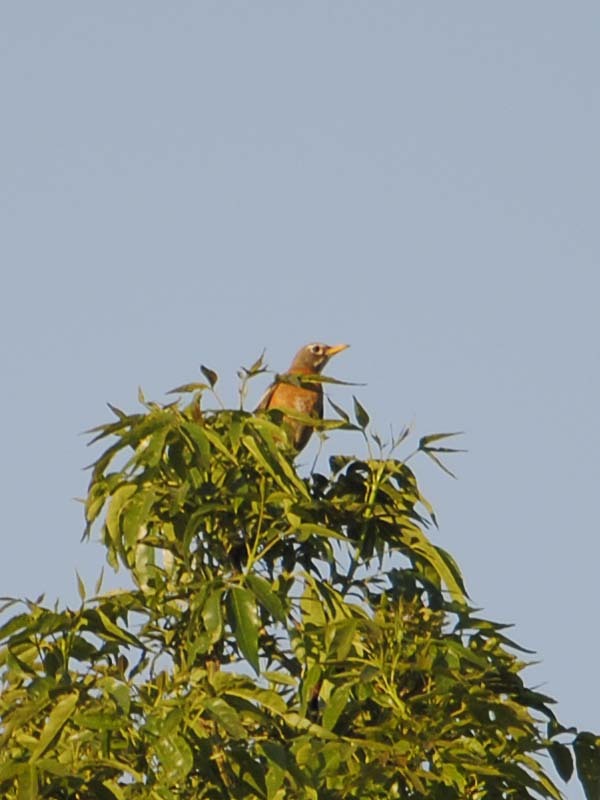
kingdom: Animalia
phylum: Chordata
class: Aves
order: Passeriformes
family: Turdidae
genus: Turdus
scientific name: Turdus migratorius
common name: American robin
